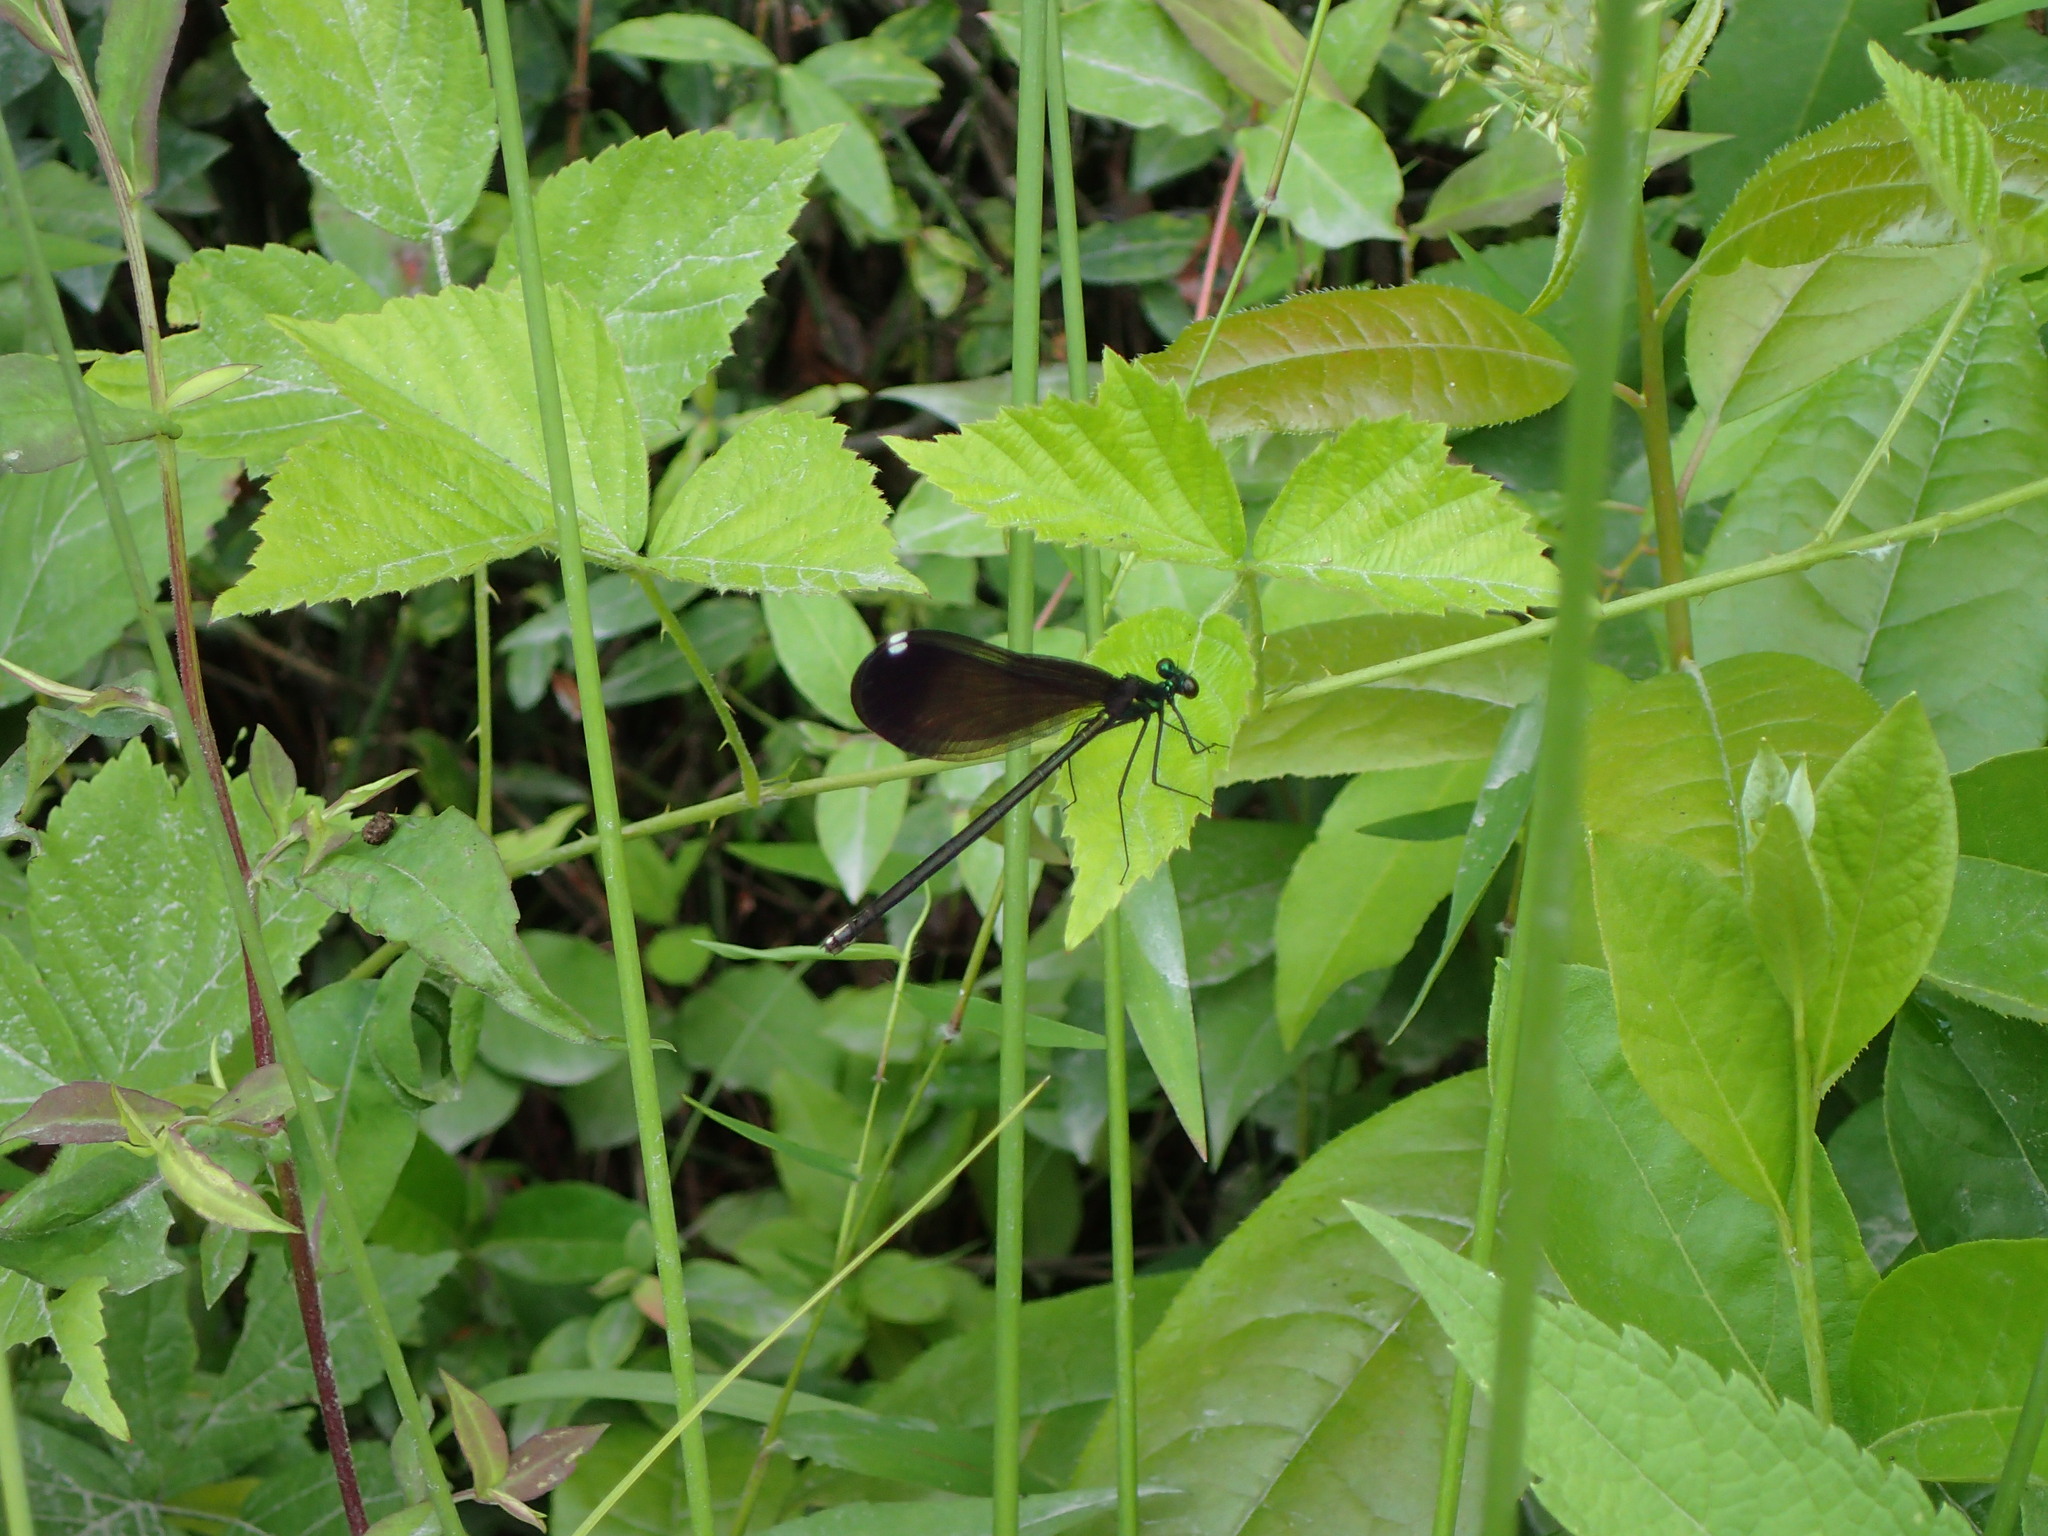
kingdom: Animalia
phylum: Arthropoda
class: Insecta
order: Odonata
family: Calopterygidae
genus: Calopteryx
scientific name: Calopteryx maculata
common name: Ebony jewelwing
